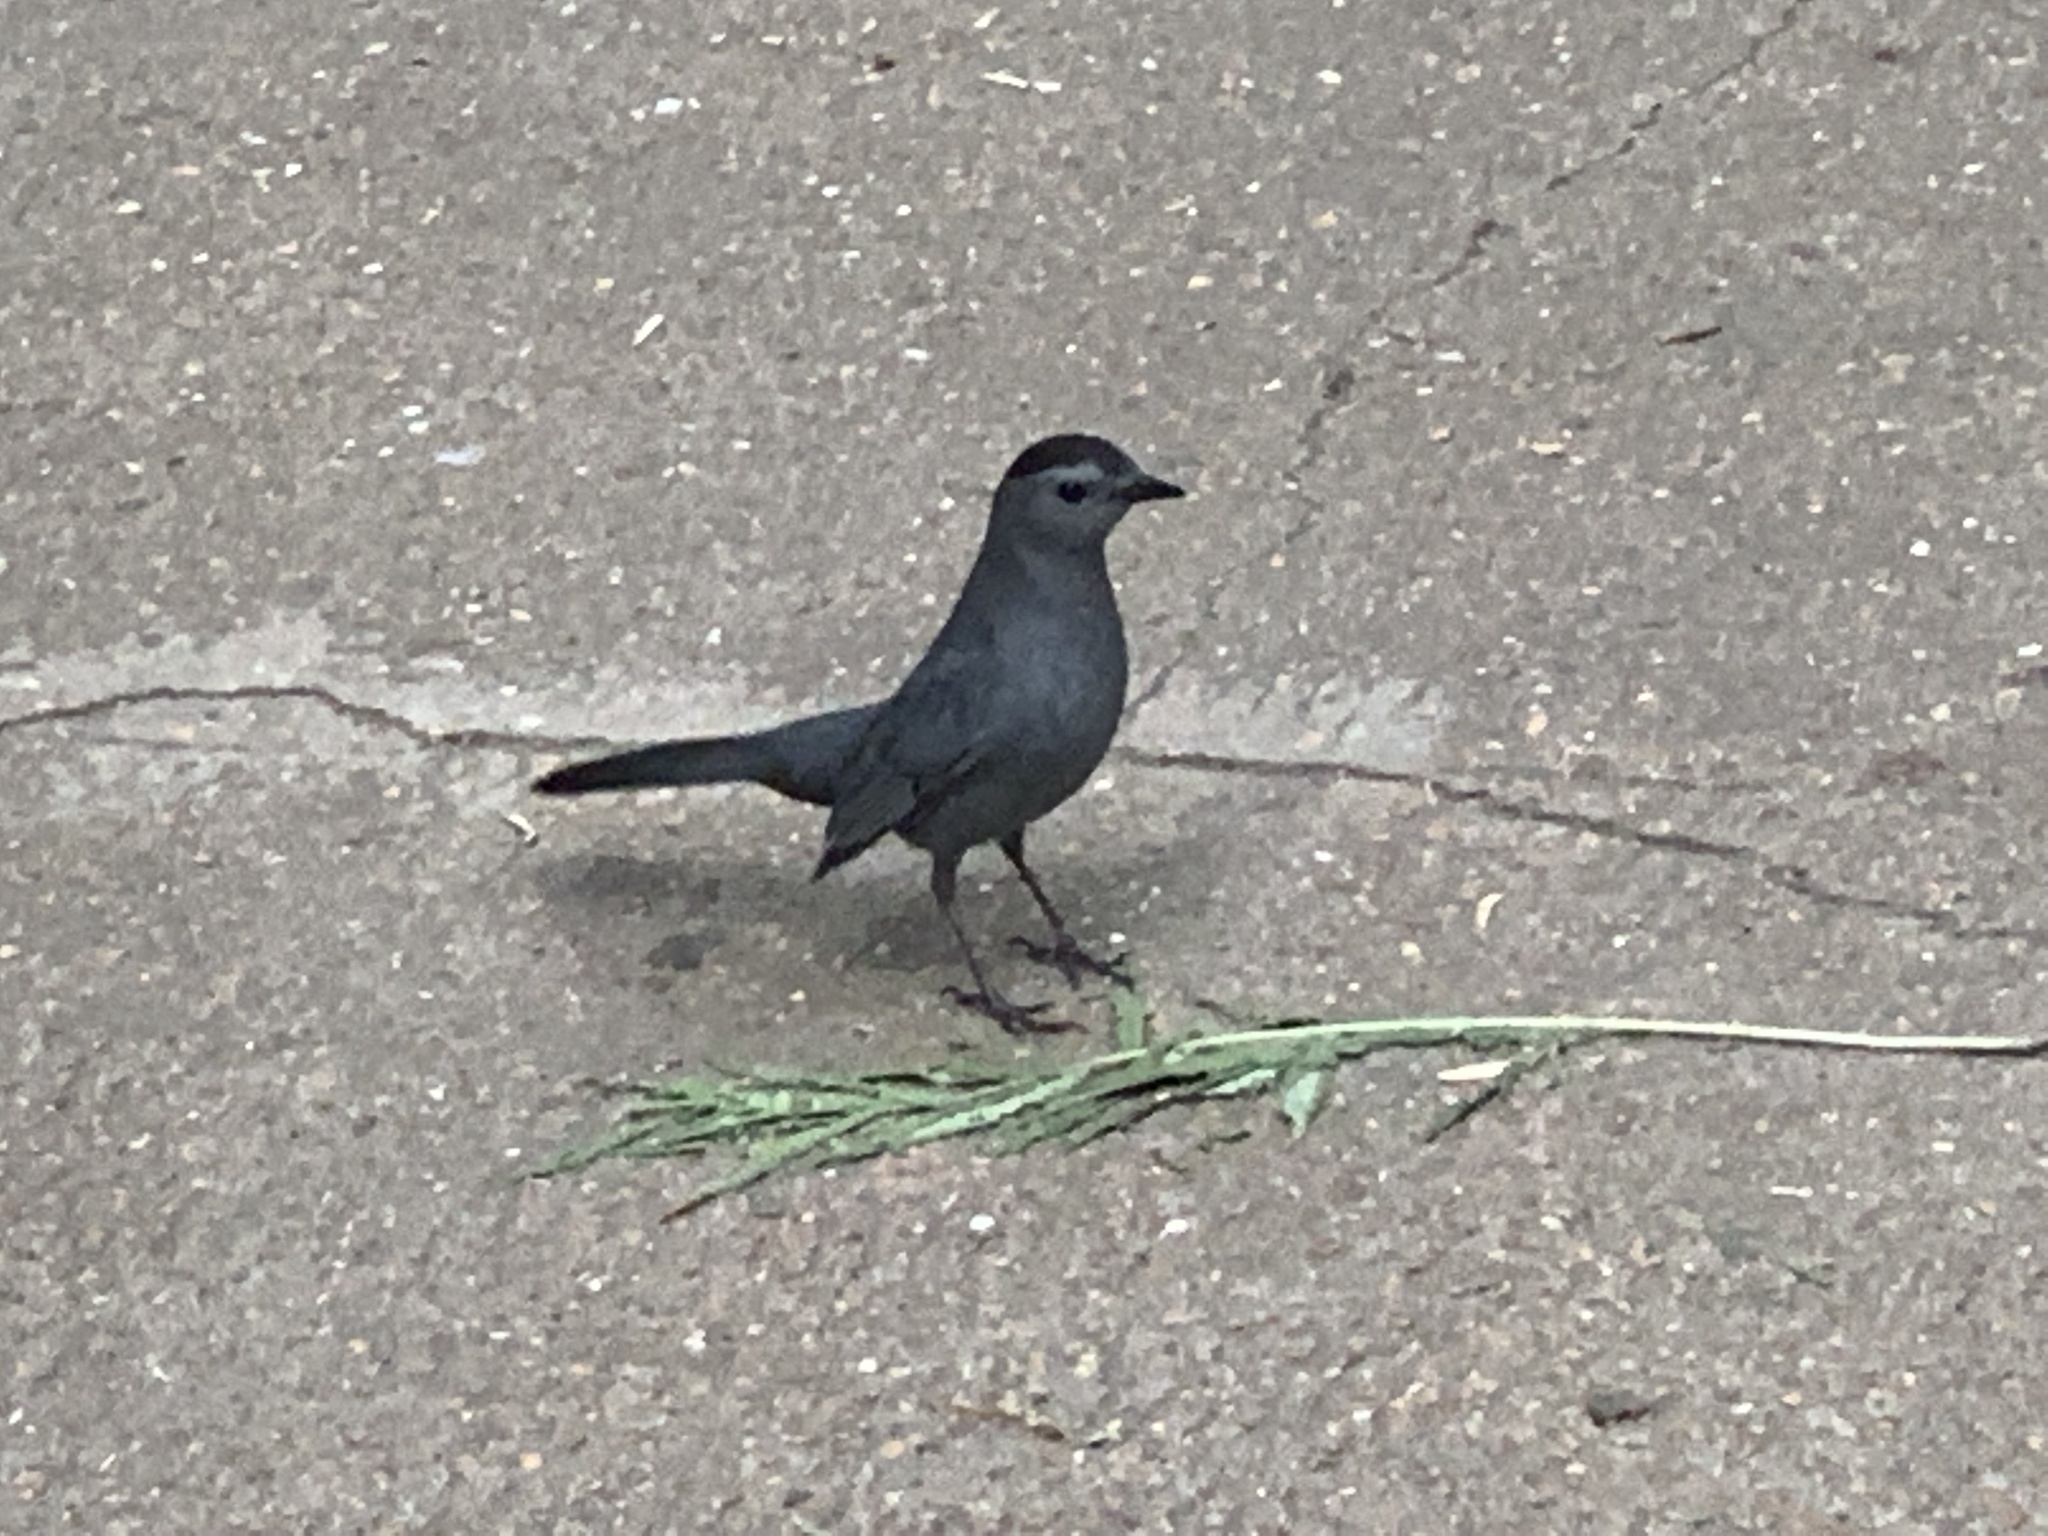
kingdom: Animalia
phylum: Chordata
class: Aves
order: Passeriformes
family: Mimidae
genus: Dumetella
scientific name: Dumetella carolinensis
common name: Gray catbird
